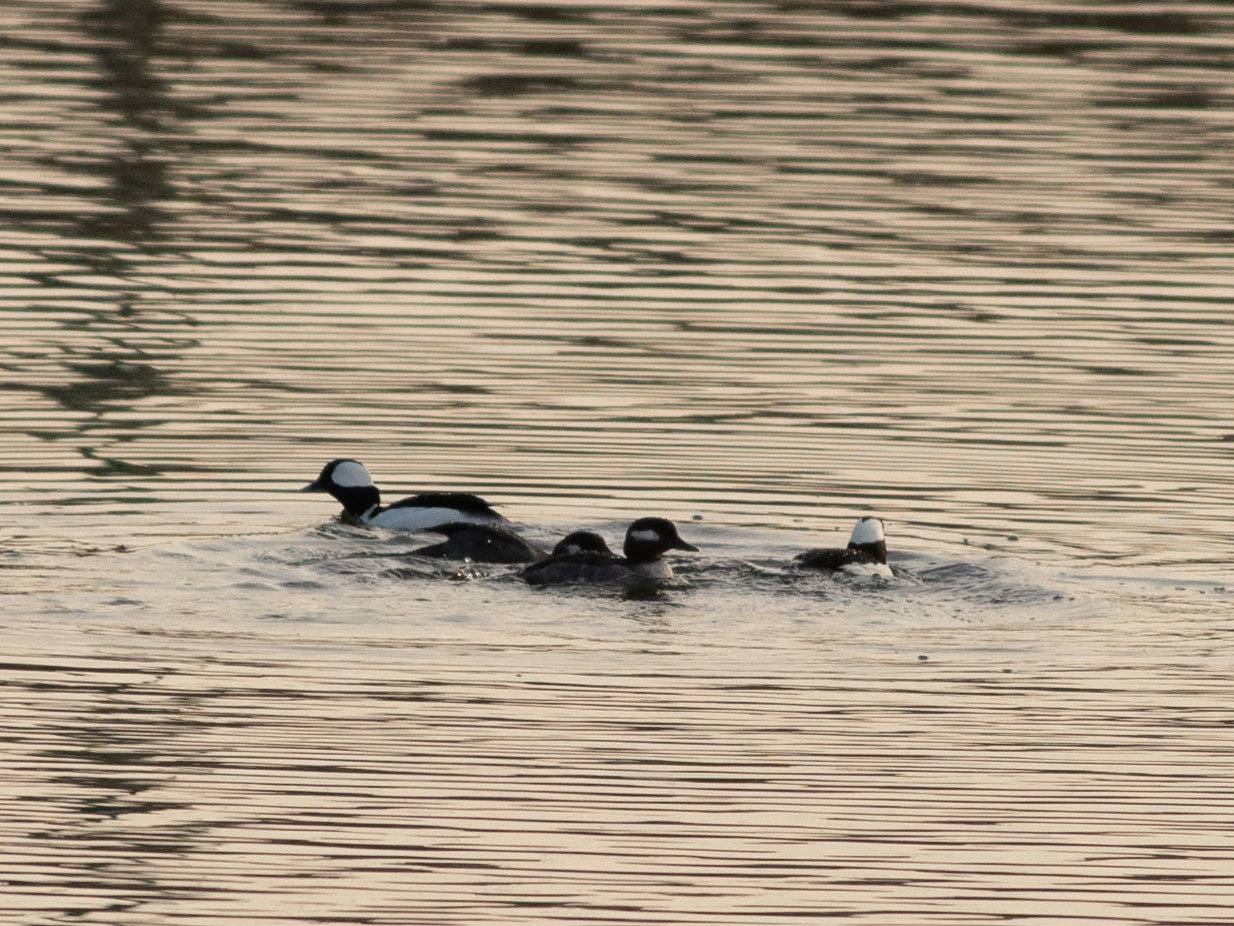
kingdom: Animalia
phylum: Chordata
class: Aves
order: Anseriformes
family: Anatidae
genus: Bucephala
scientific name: Bucephala albeola
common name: Bufflehead
